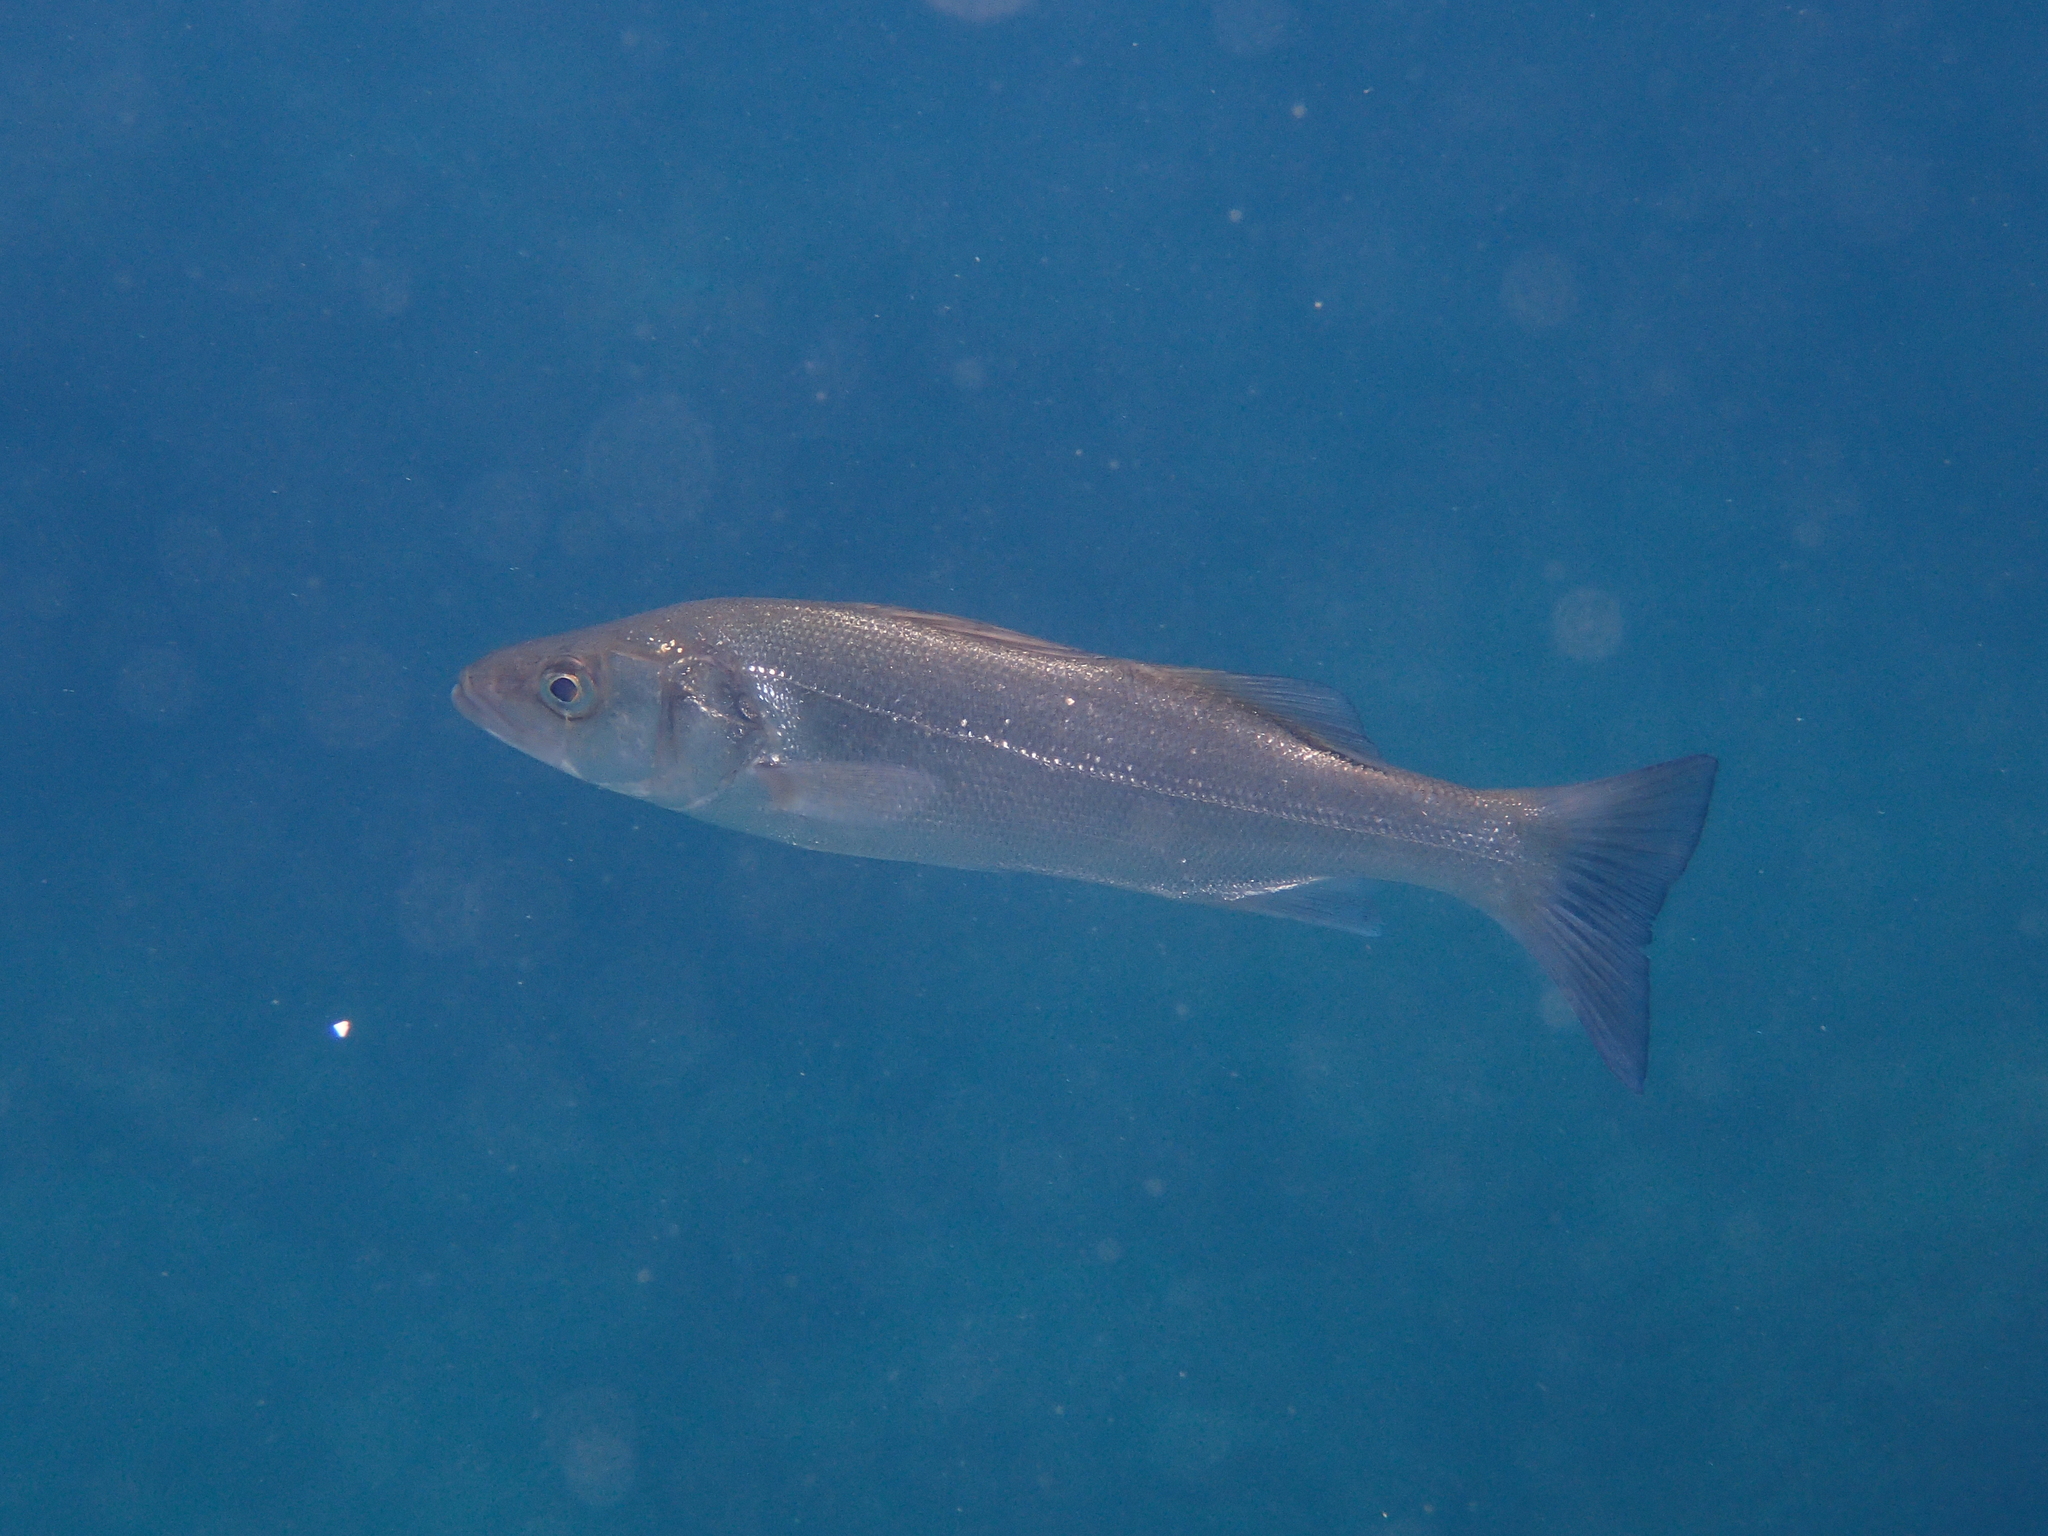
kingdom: Animalia
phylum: Chordata
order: Perciformes
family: Moronidae
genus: Dicentrarchus
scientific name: Dicentrarchus labrax
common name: European seabass
